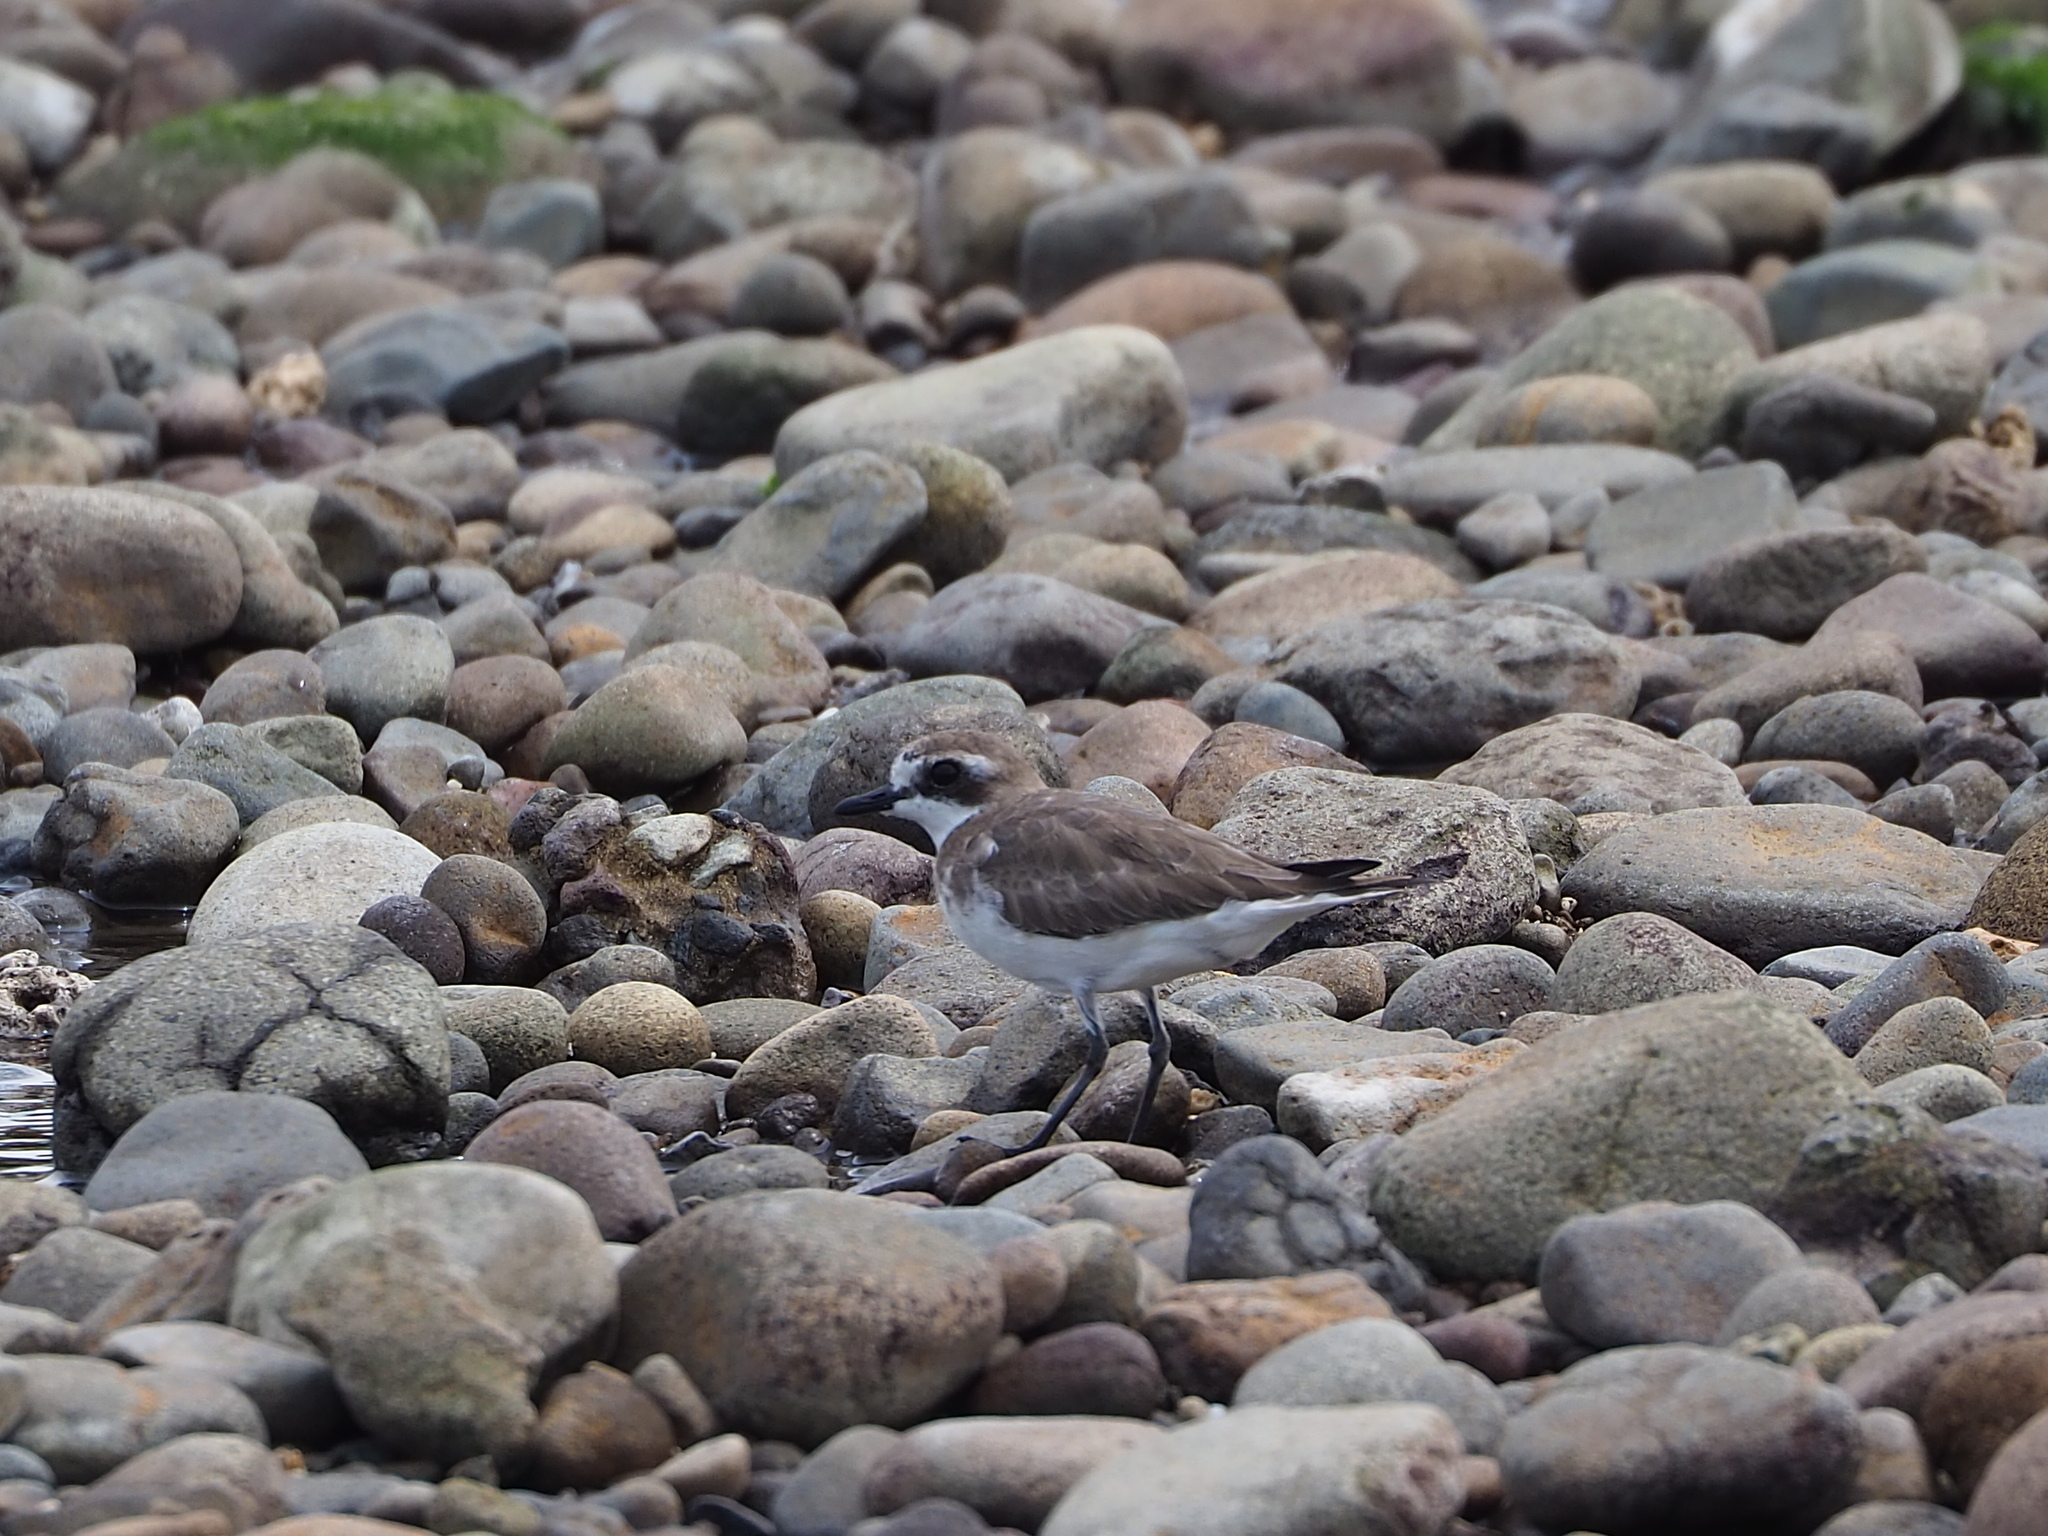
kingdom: Animalia
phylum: Chordata
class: Aves
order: Charadriiformes
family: Charadriidae
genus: Anarhynchus
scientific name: Anarhynchus
